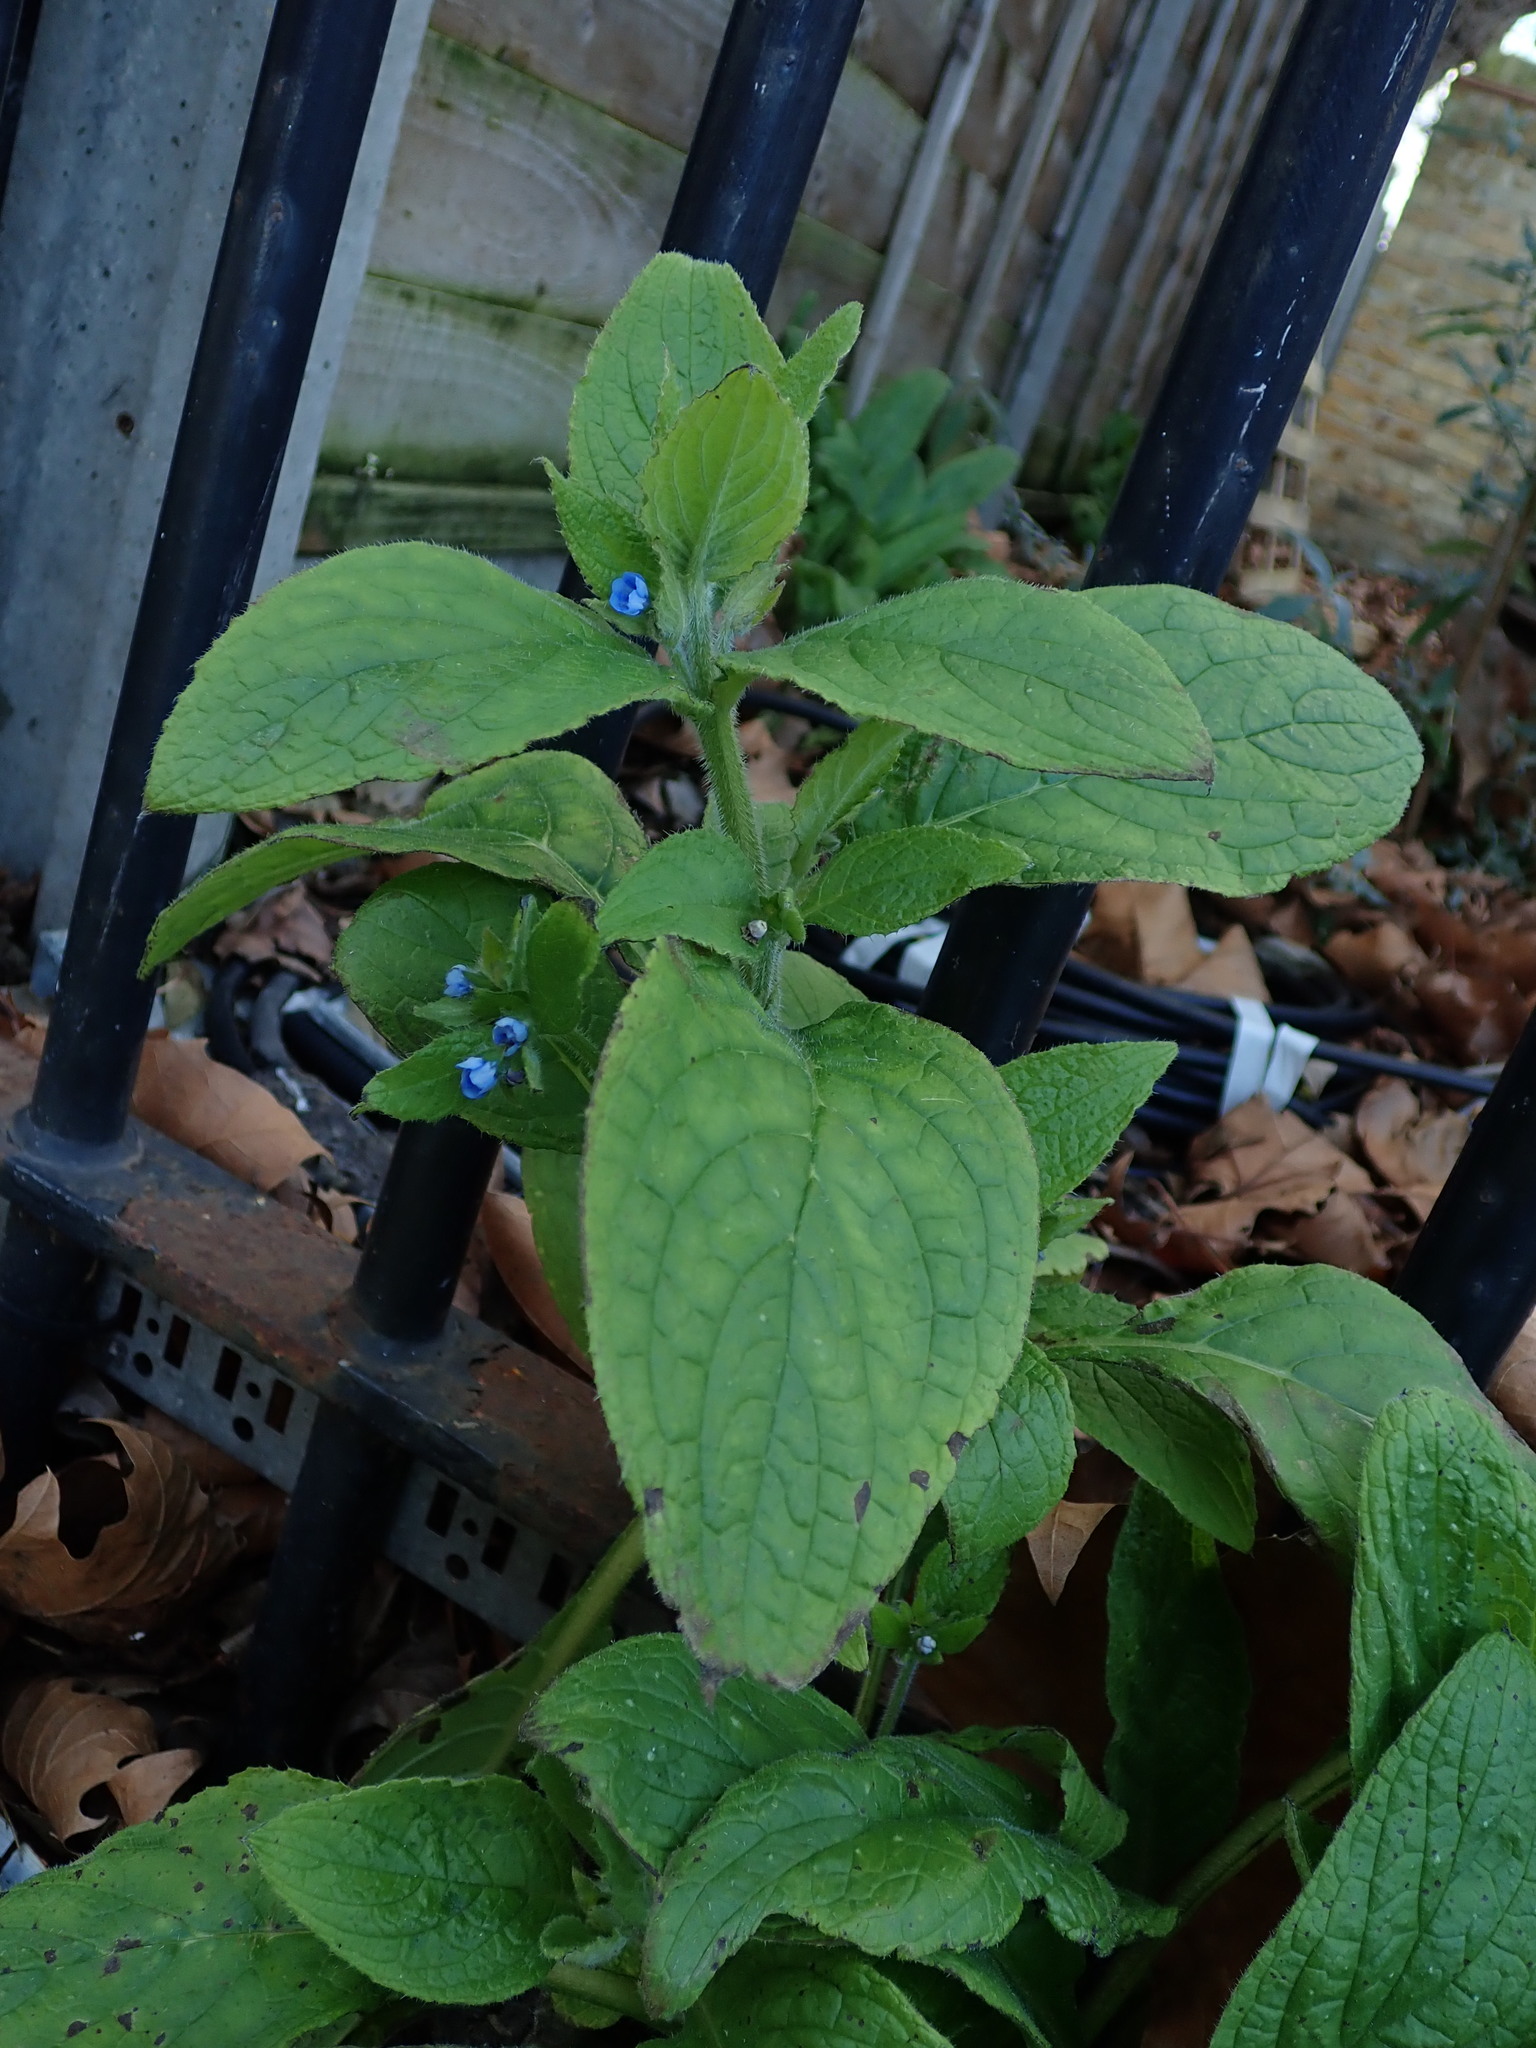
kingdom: Plantae
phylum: Tracheophyta
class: Magnoliopsida
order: Boraginales
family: Boraginaceae
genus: Pentaglottis
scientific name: Pentaglottis sempervirens
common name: Green alkanet
